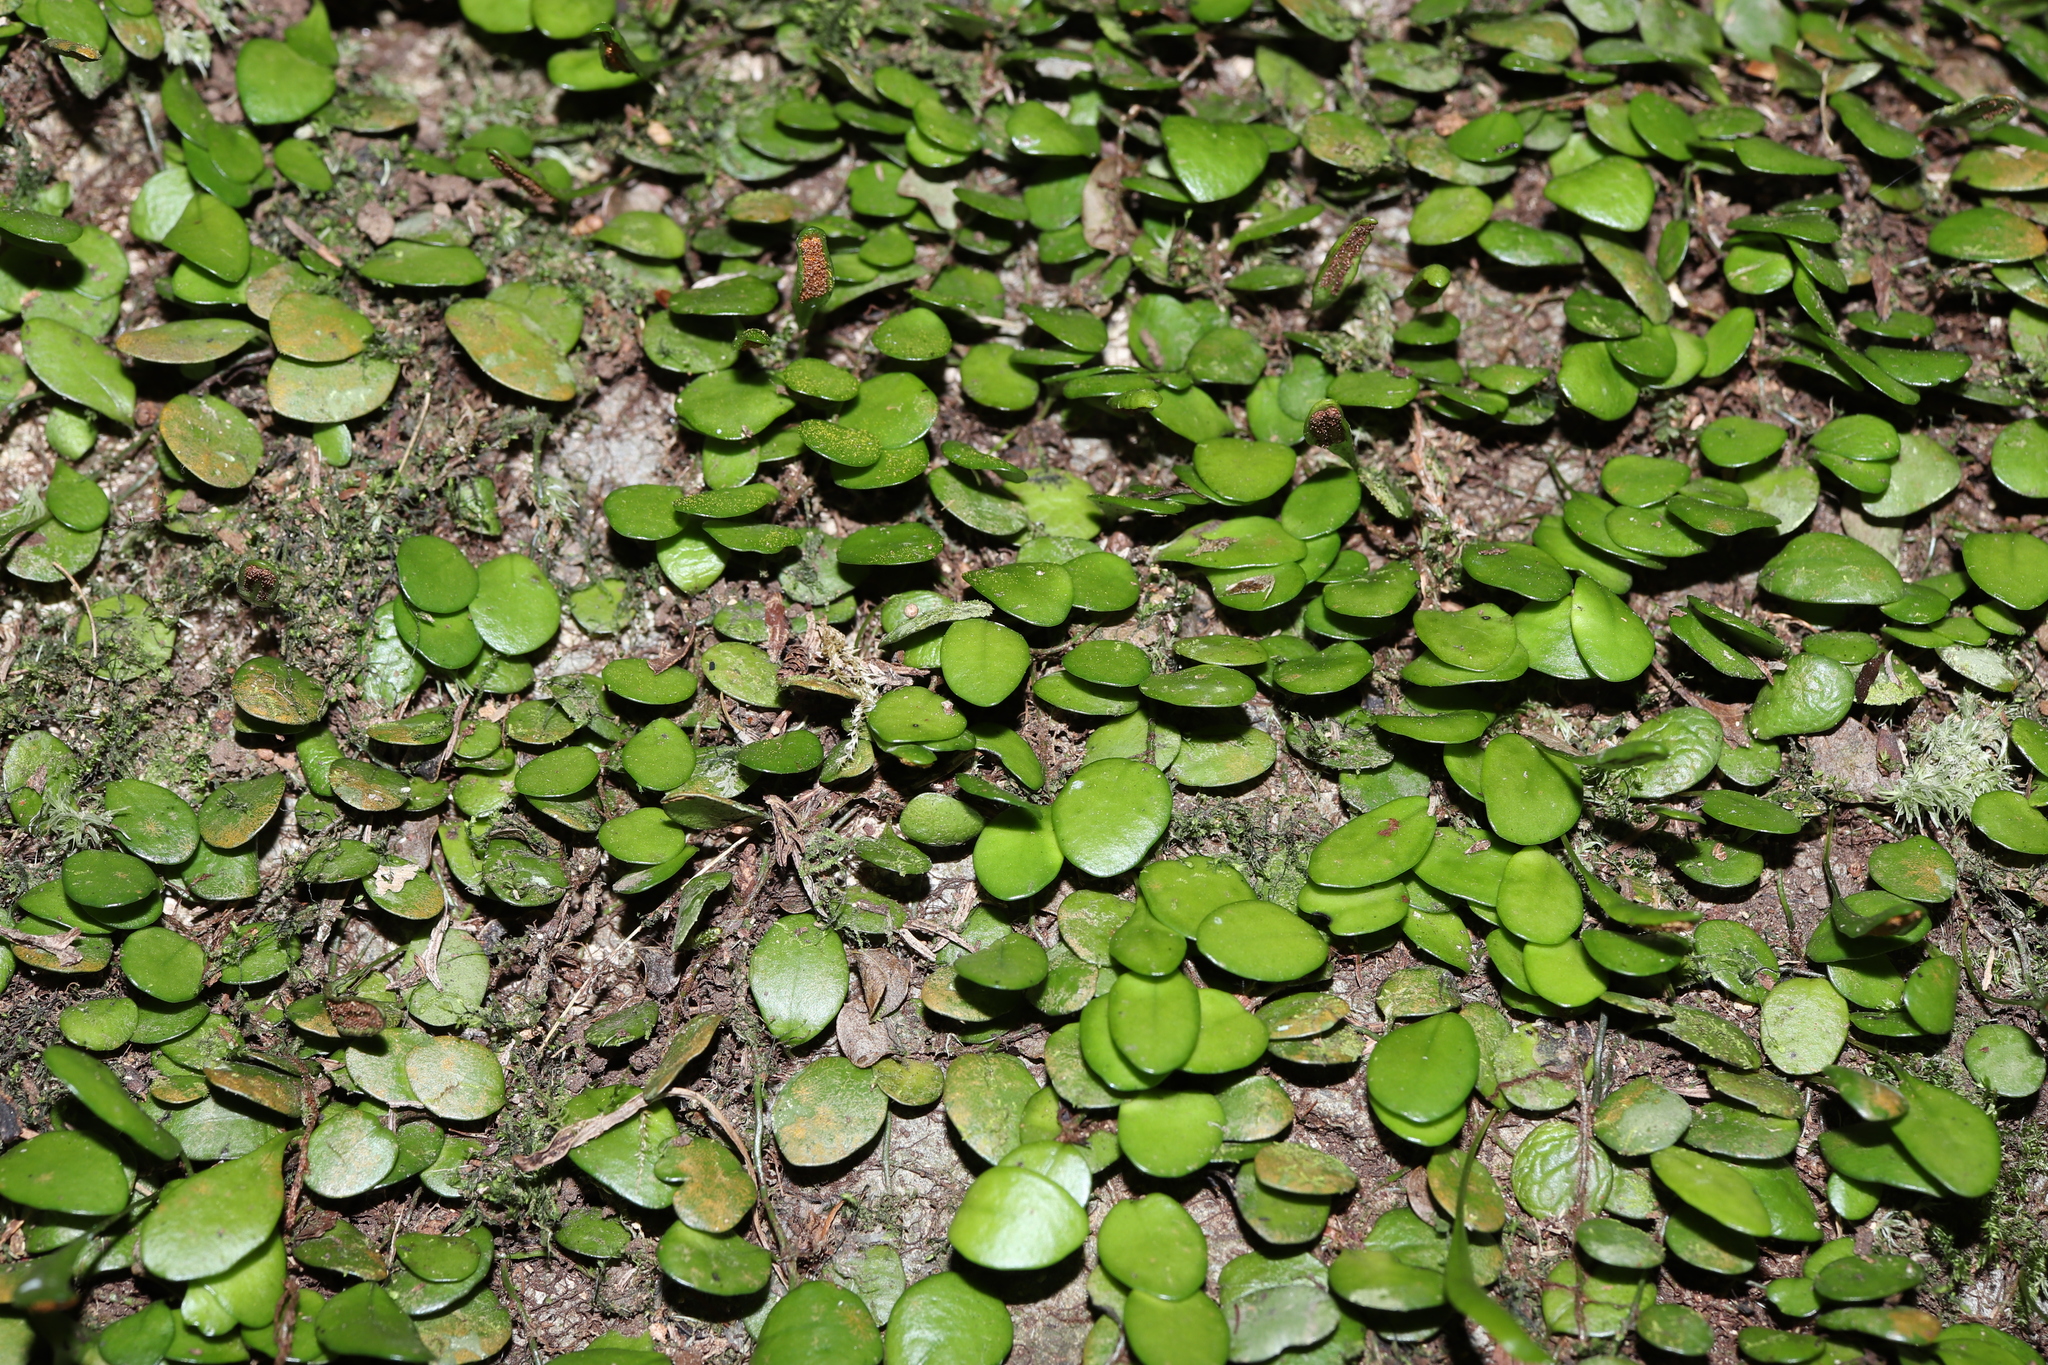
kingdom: Plantae
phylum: Tracheophyta
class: Polypodiopsida
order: Polypodiales
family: Polypodiaceae
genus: Lepisorus
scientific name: Lepisorus microphyllus
